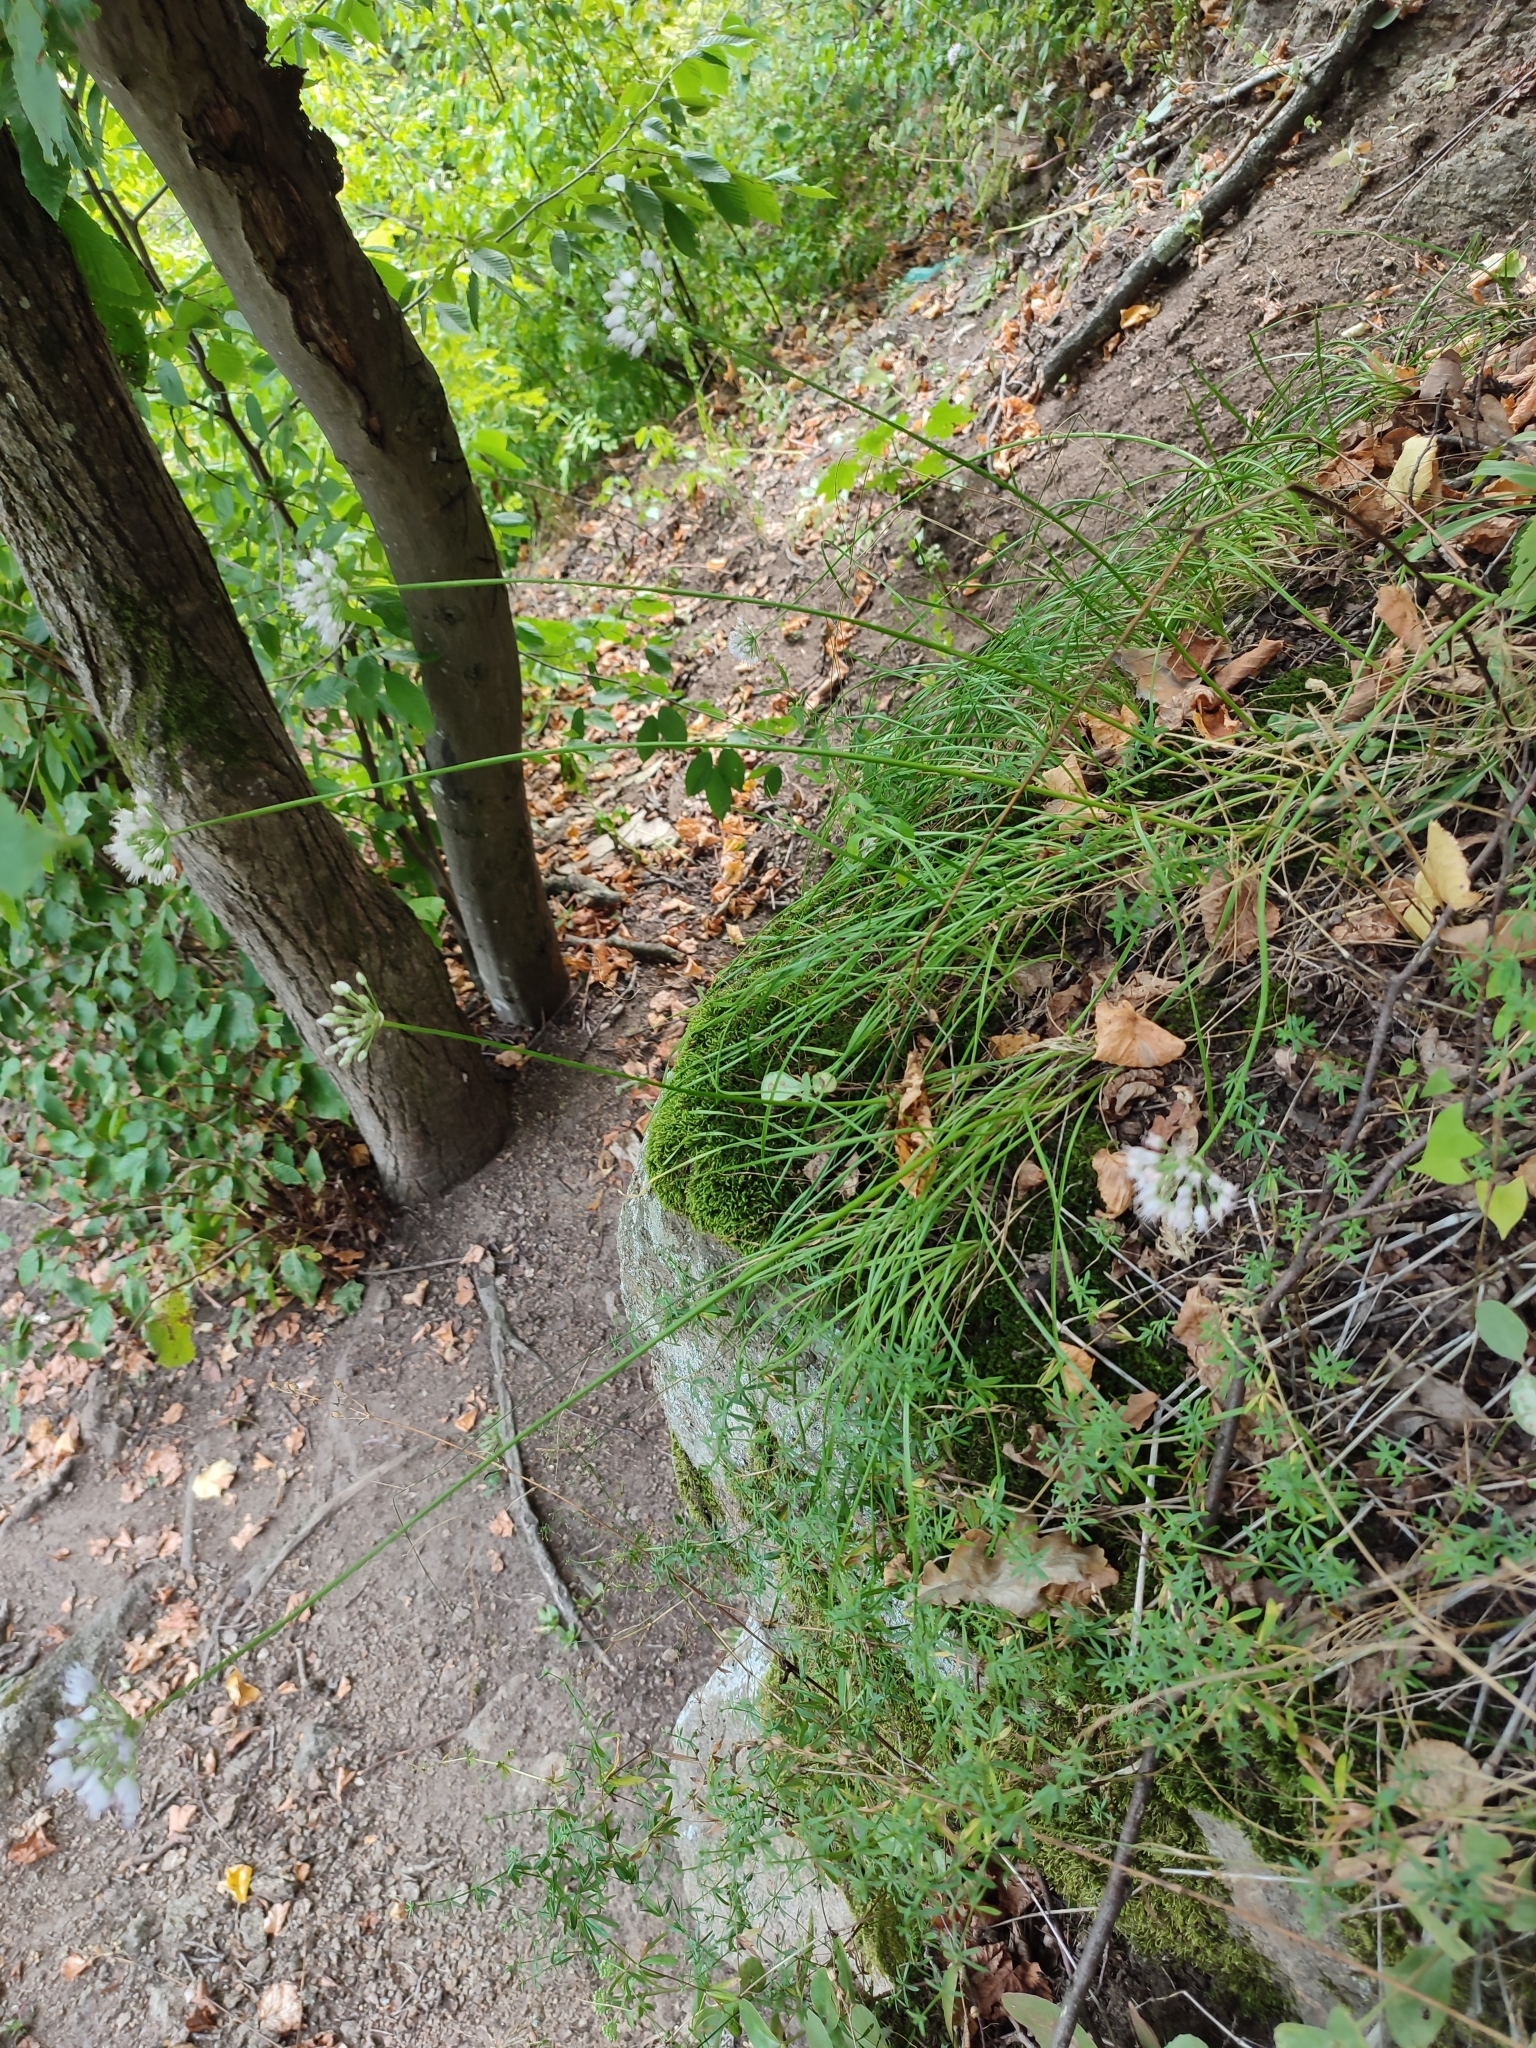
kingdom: Plantae
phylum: Tracheophyta
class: Liliopsida
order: Asparagales
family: Amaryllidaceae
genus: Allium
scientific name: Allium lusitanicum
